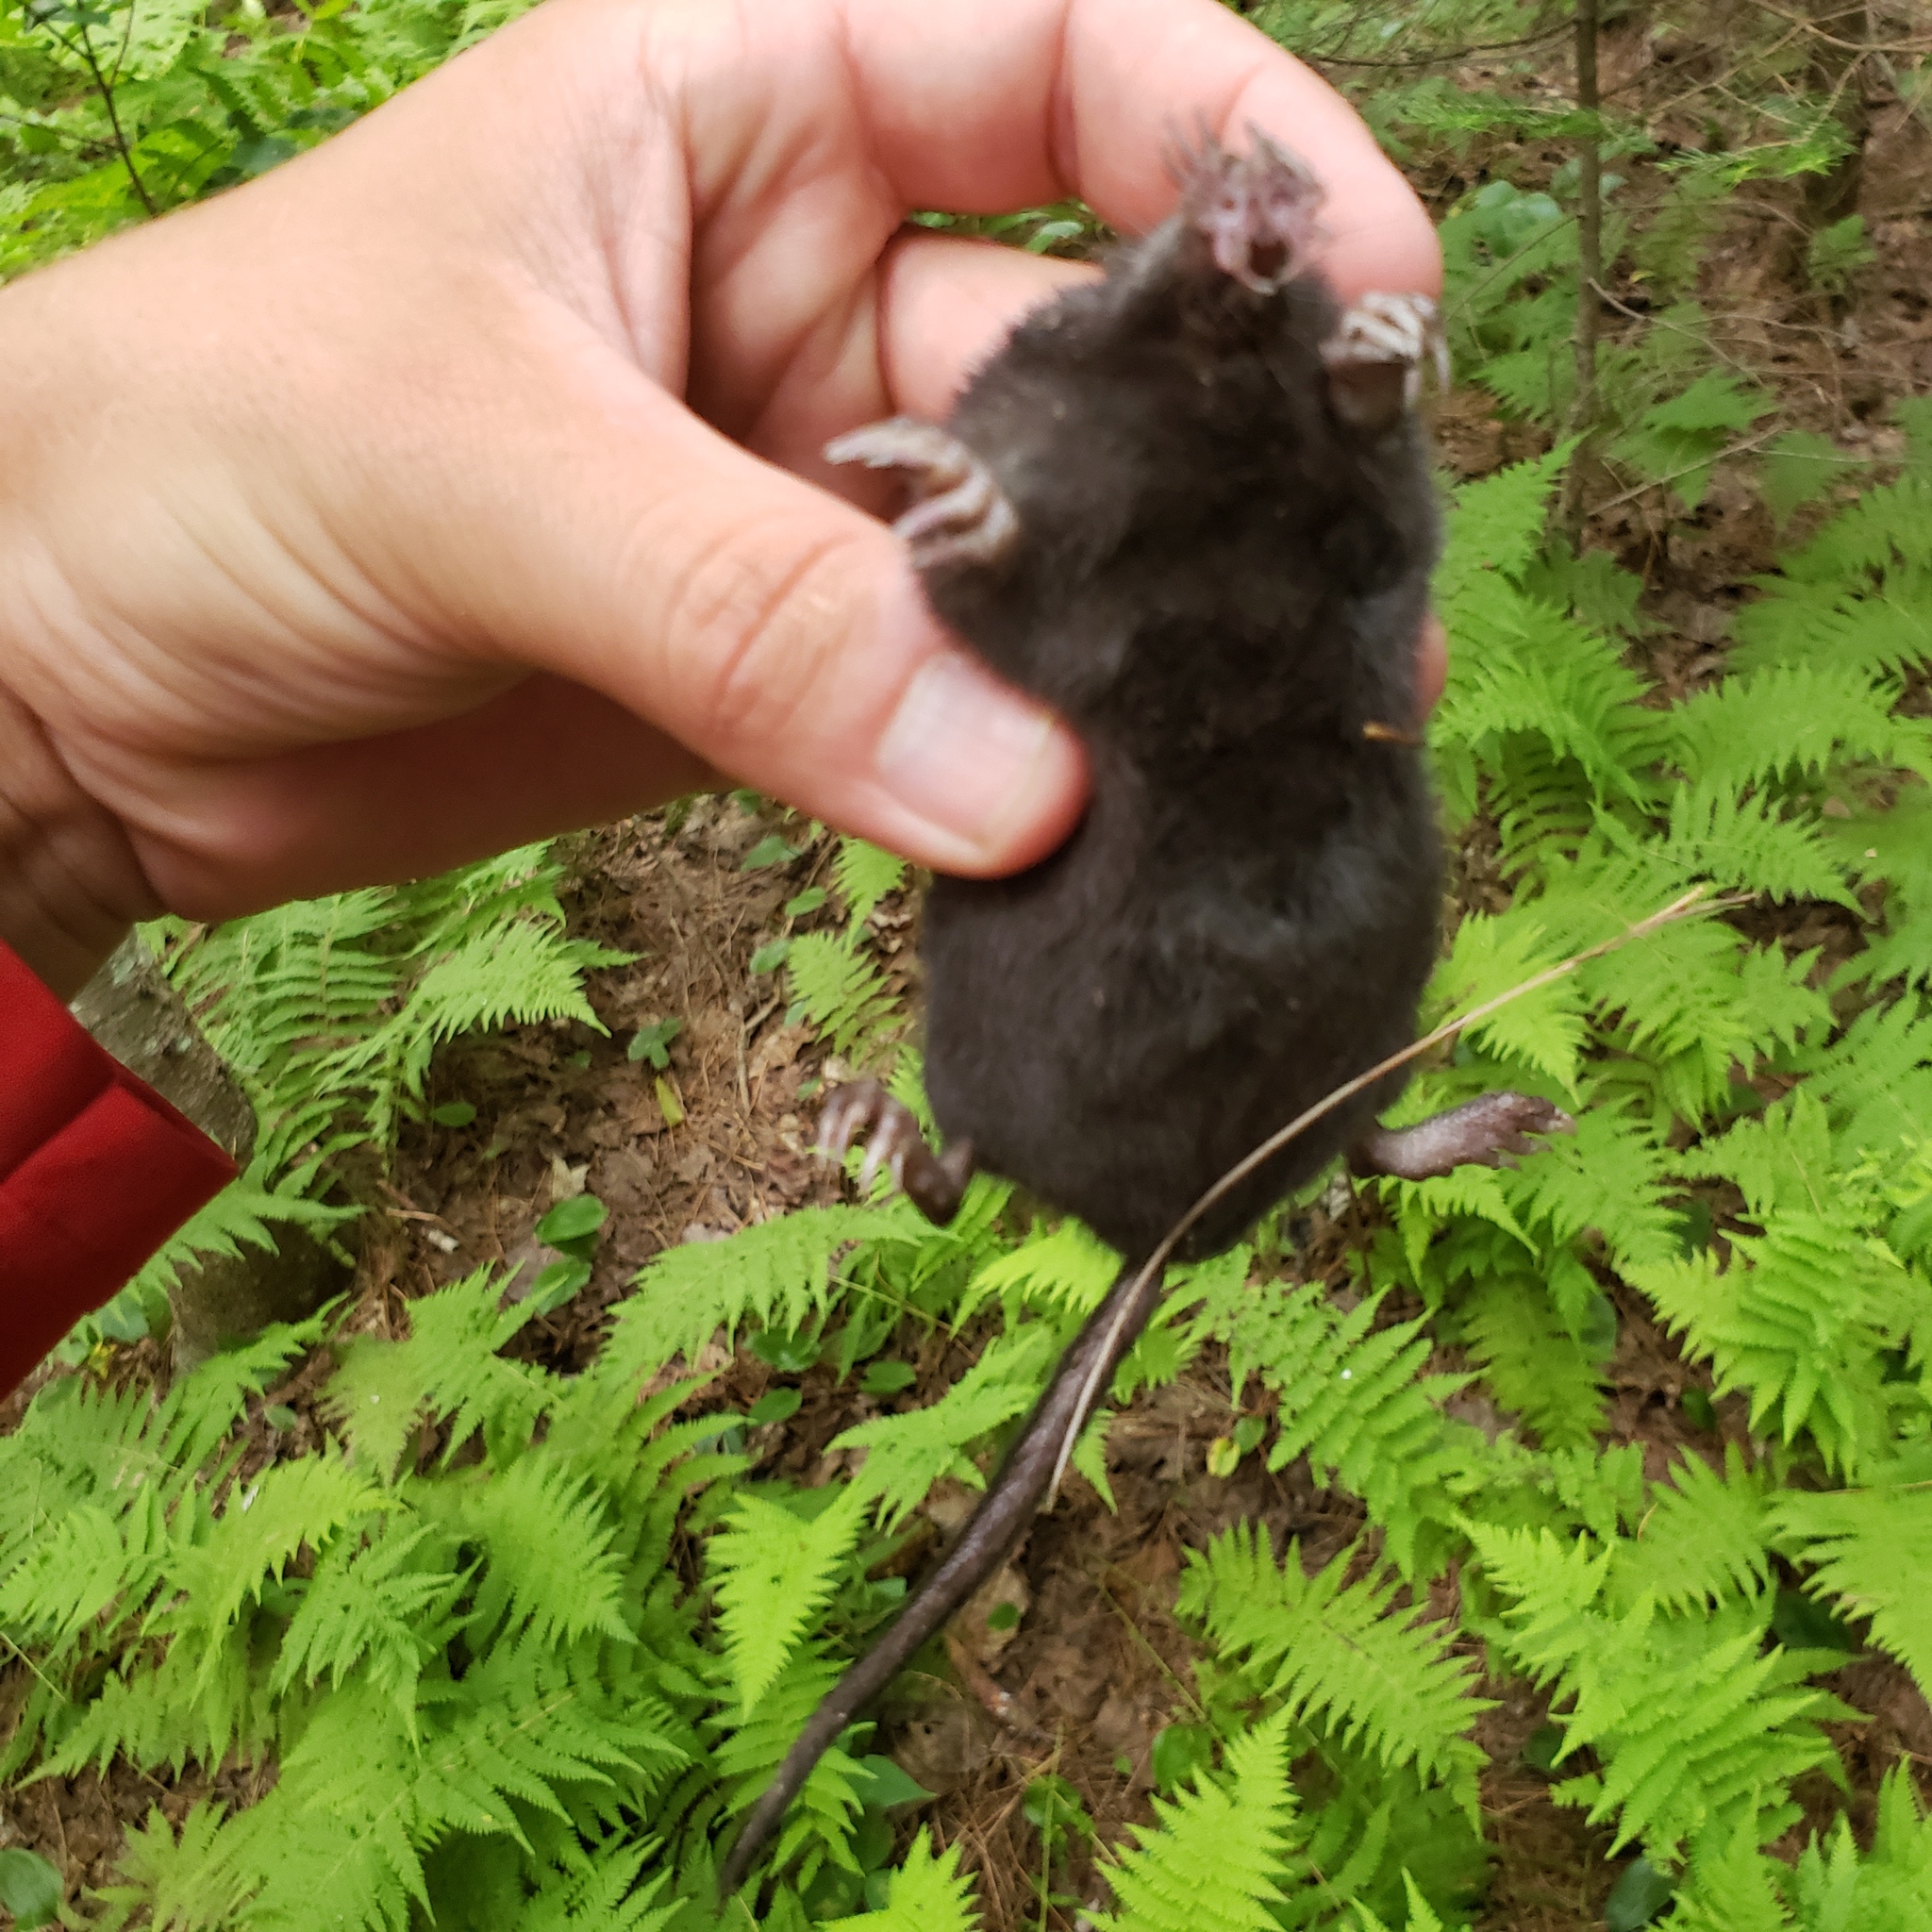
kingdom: Animalia
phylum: Chordata
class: Mammalia
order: Soricomorpha
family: Talpidae
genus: Condylura
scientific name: Condylura cristata
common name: Star-nosed mole
